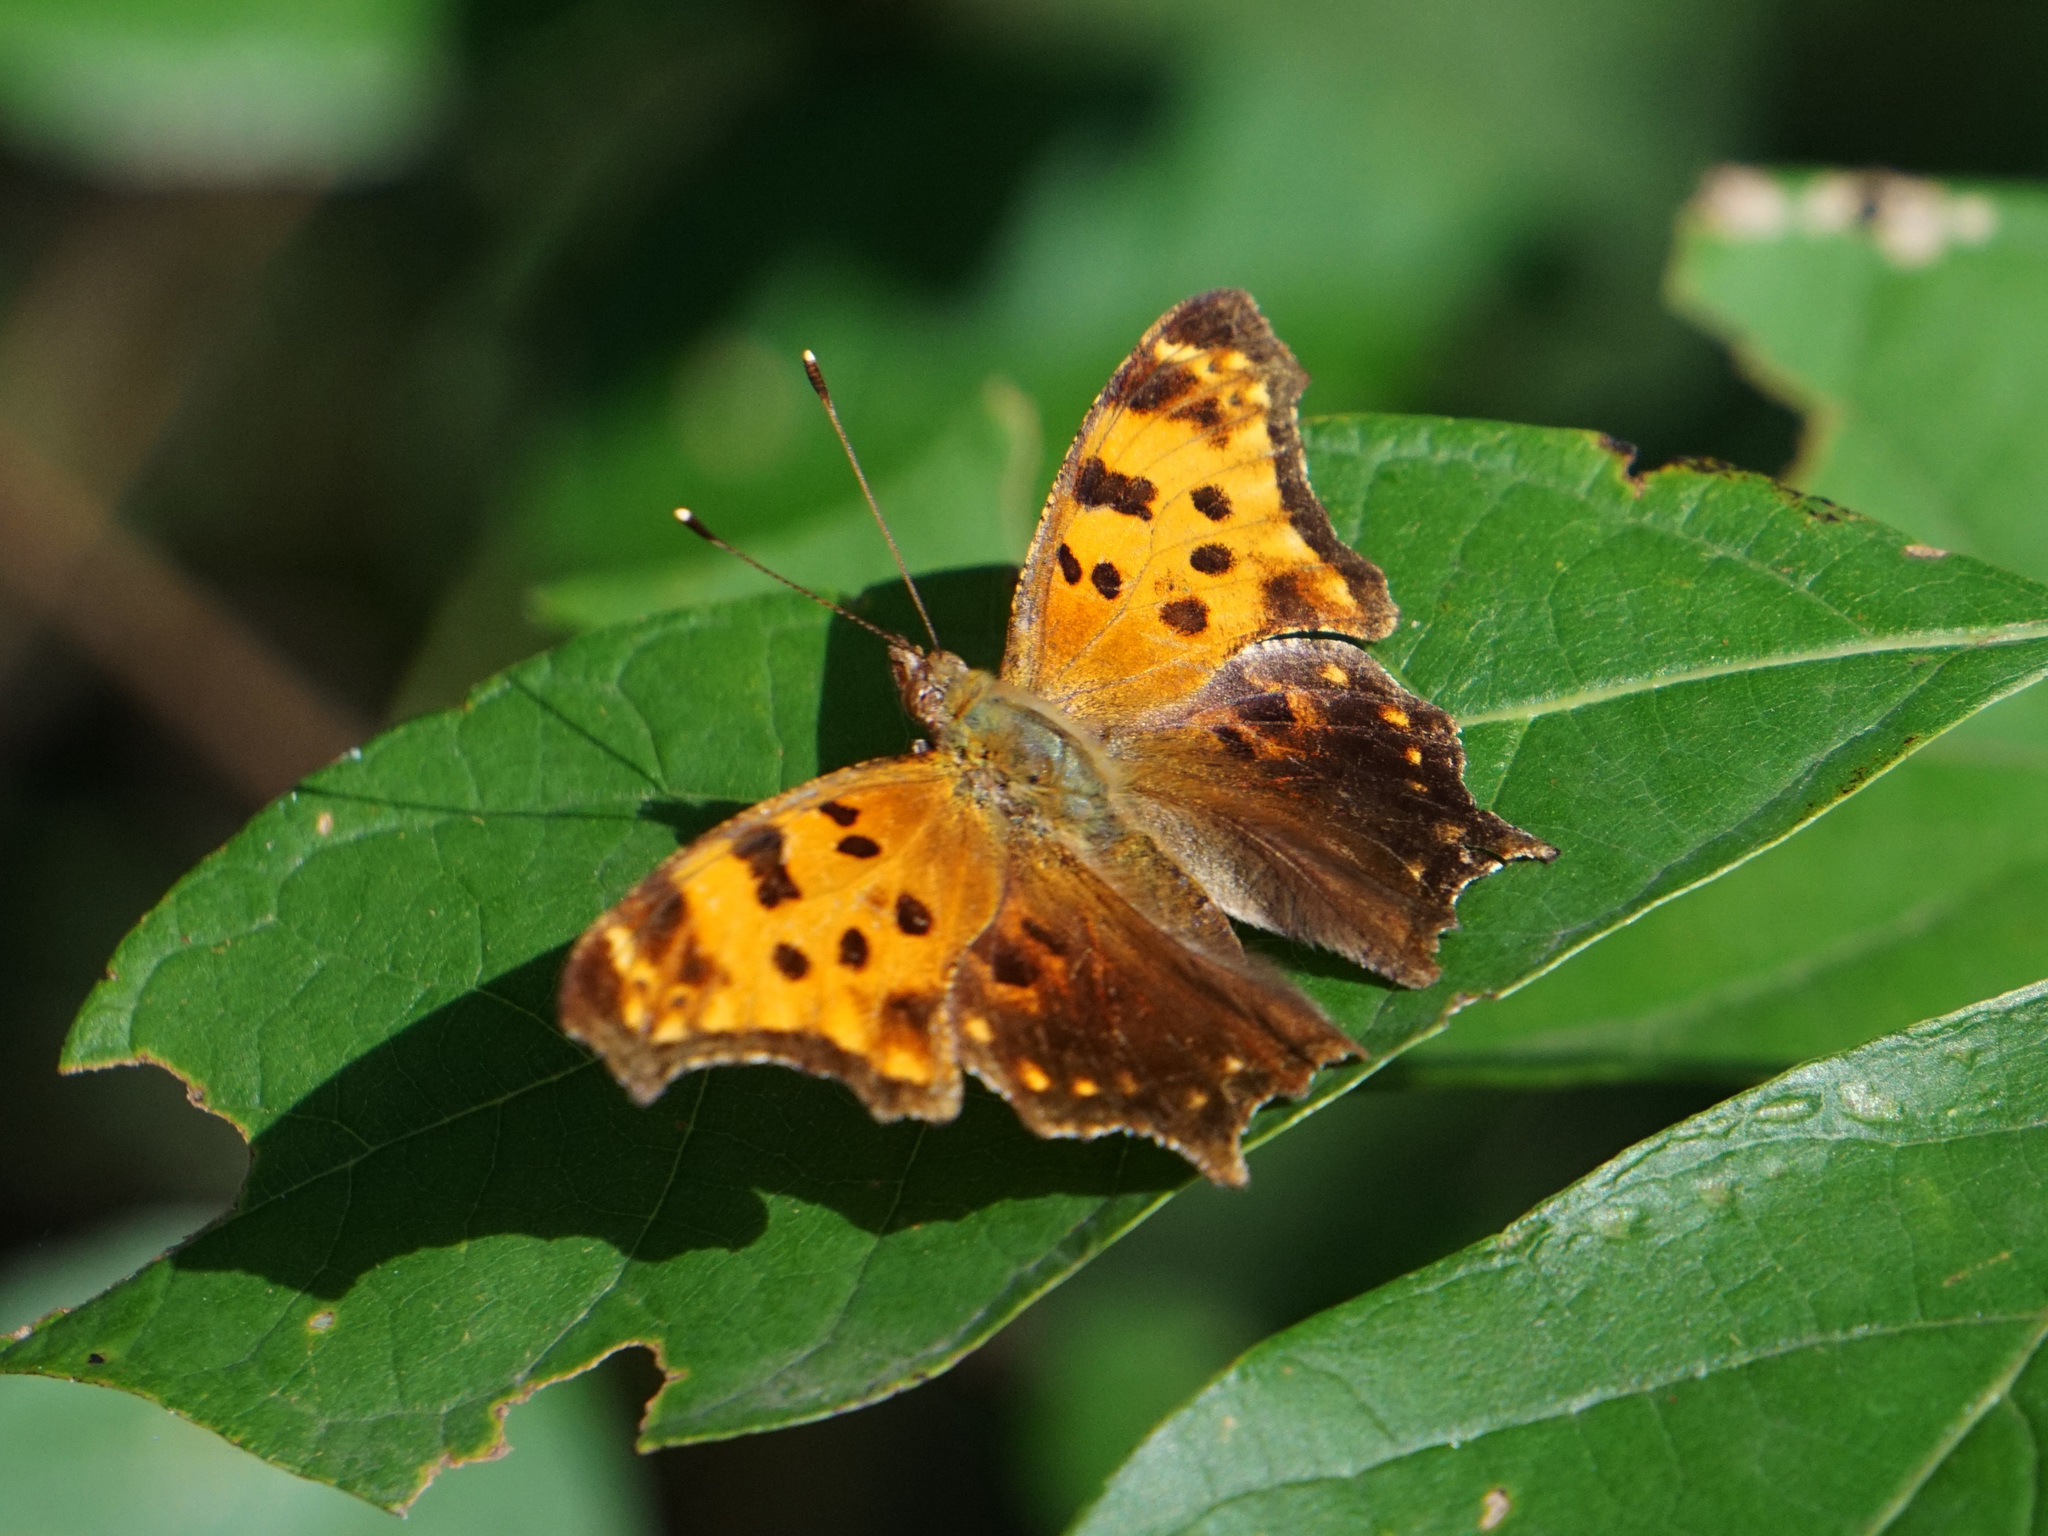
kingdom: Animalia
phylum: Arthropoda
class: Insecta
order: Lepidoptera
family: Nymphalidae
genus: Polygonia
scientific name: Polygonia comma
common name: Eastern comma
